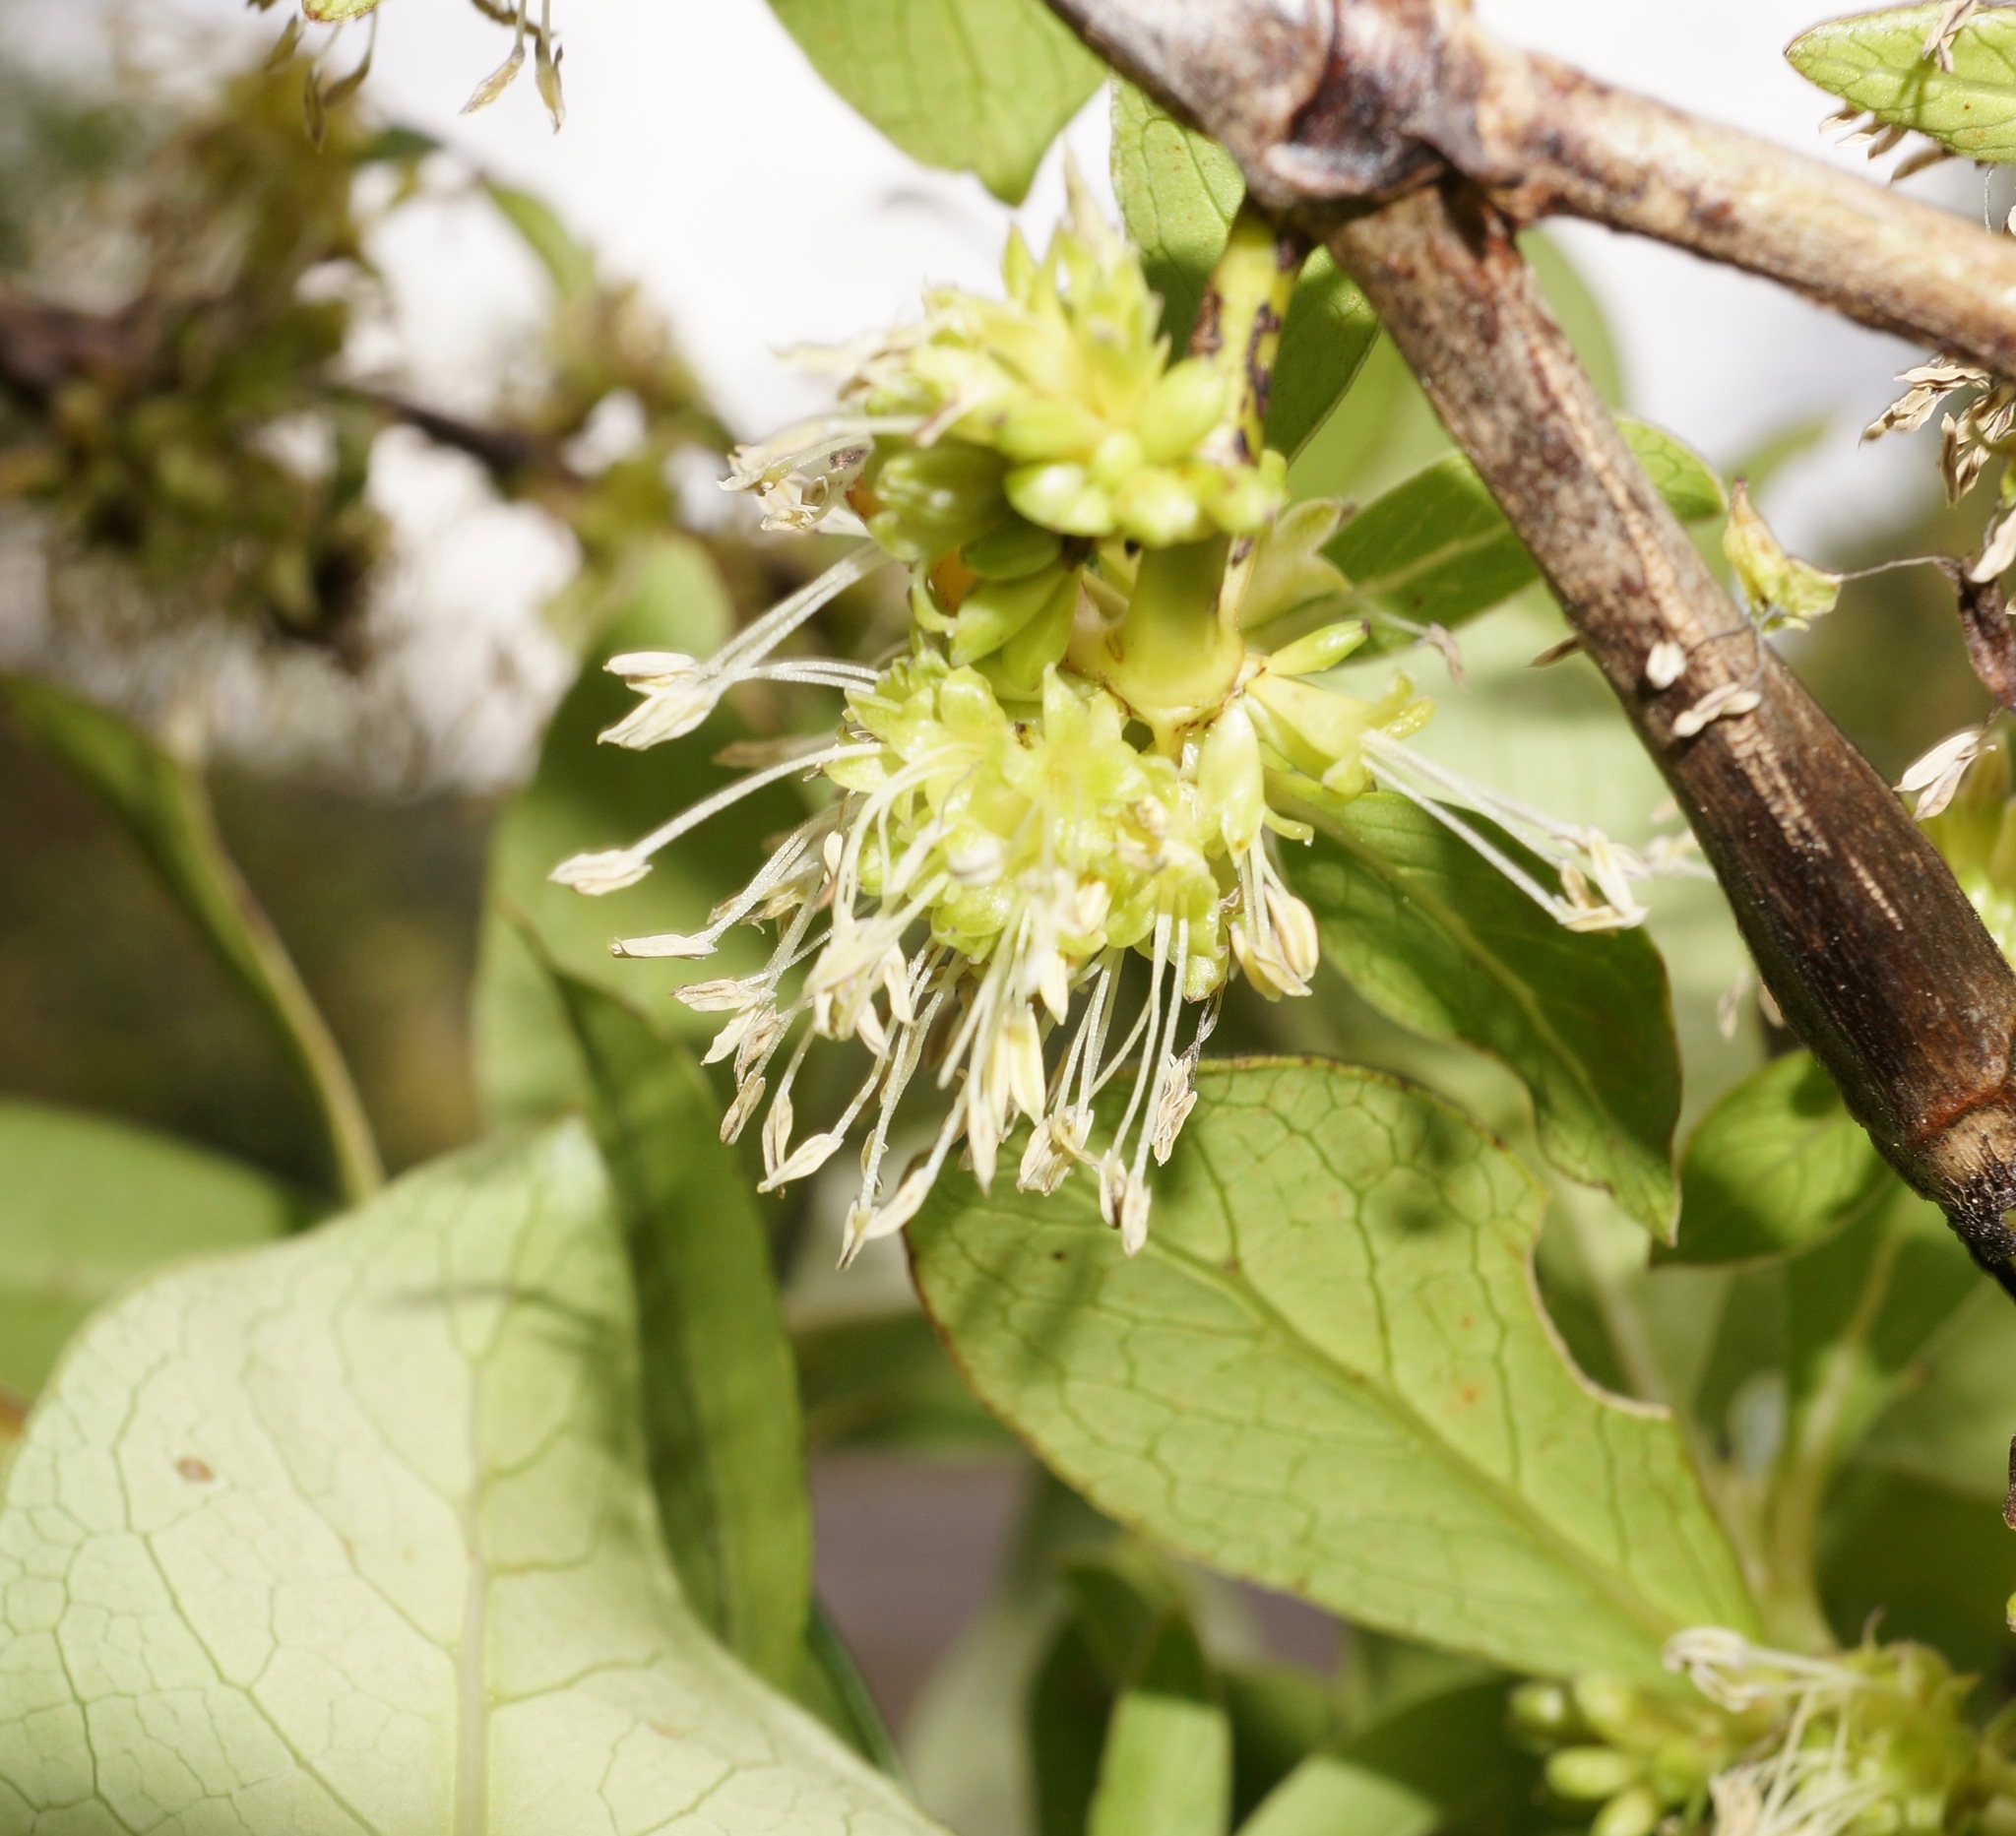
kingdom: Plantae
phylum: Tracheophyta
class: Magnoliopsida
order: Gentianales
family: Rubiaceae
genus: Coprosma
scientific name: Coprosma robusta
